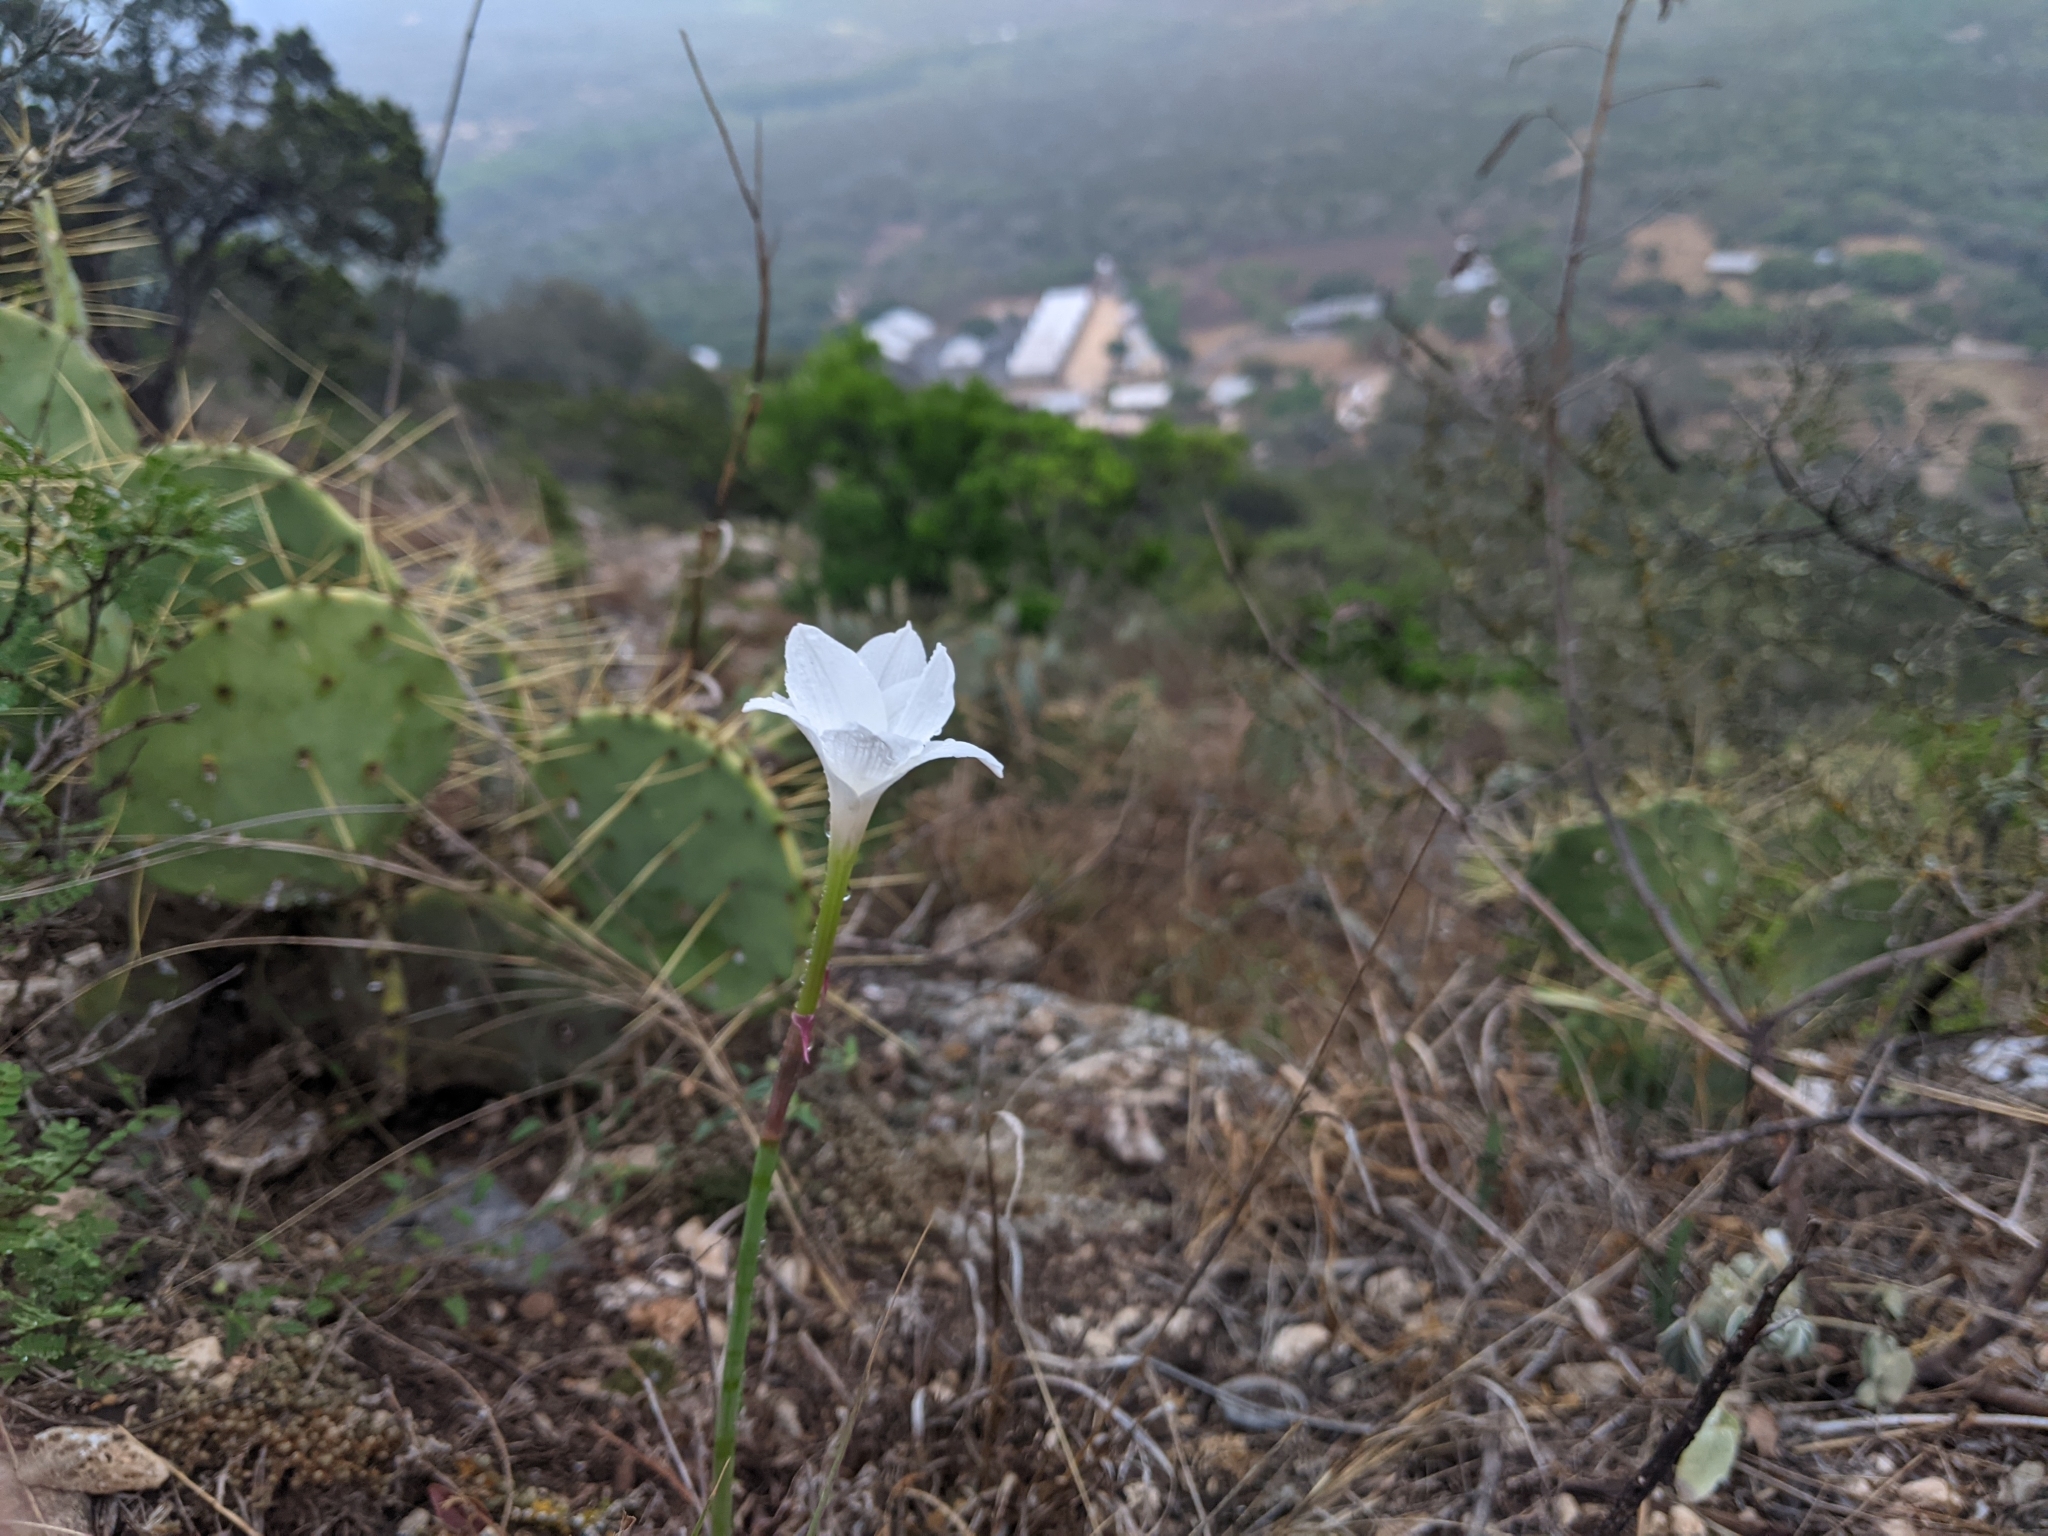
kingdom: Plantae
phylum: Tracheophyta
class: Liliopsida
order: Asparagales
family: Amaryllidaceae
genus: Zephyranthes
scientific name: Zephyranthes drummondii
